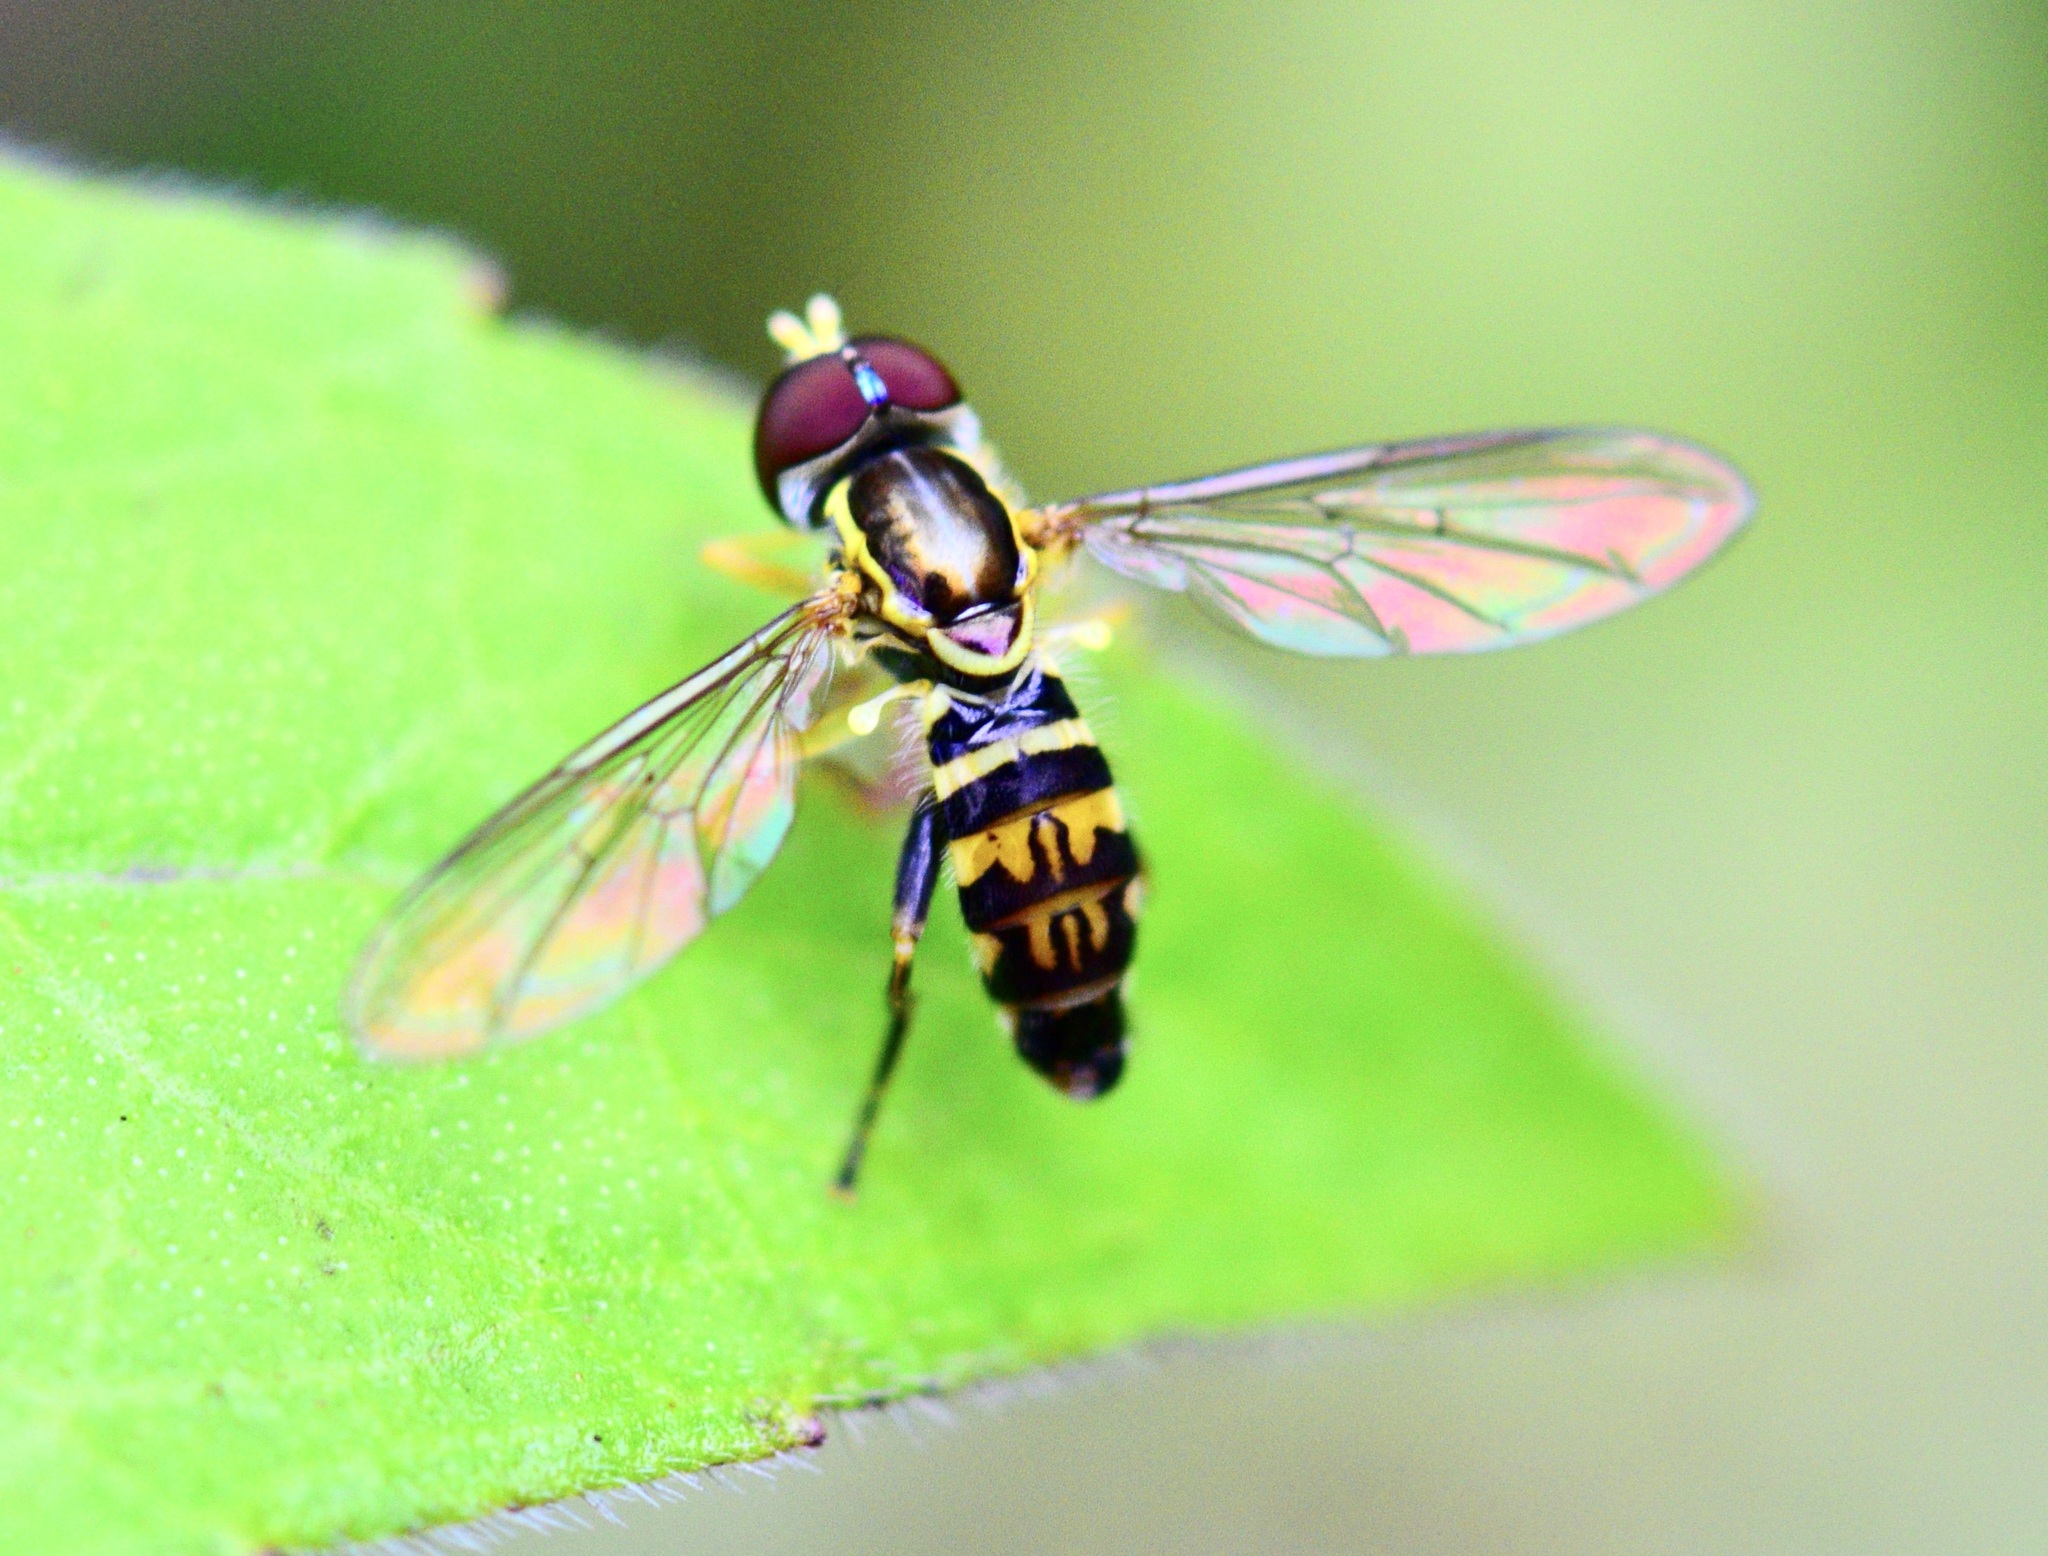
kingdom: Animalia
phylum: Arthropoda
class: Insecta
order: Diptera
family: Syrphidae
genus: Toxomerus
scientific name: Toxomerus geminatus
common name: Eastern calligrapher
